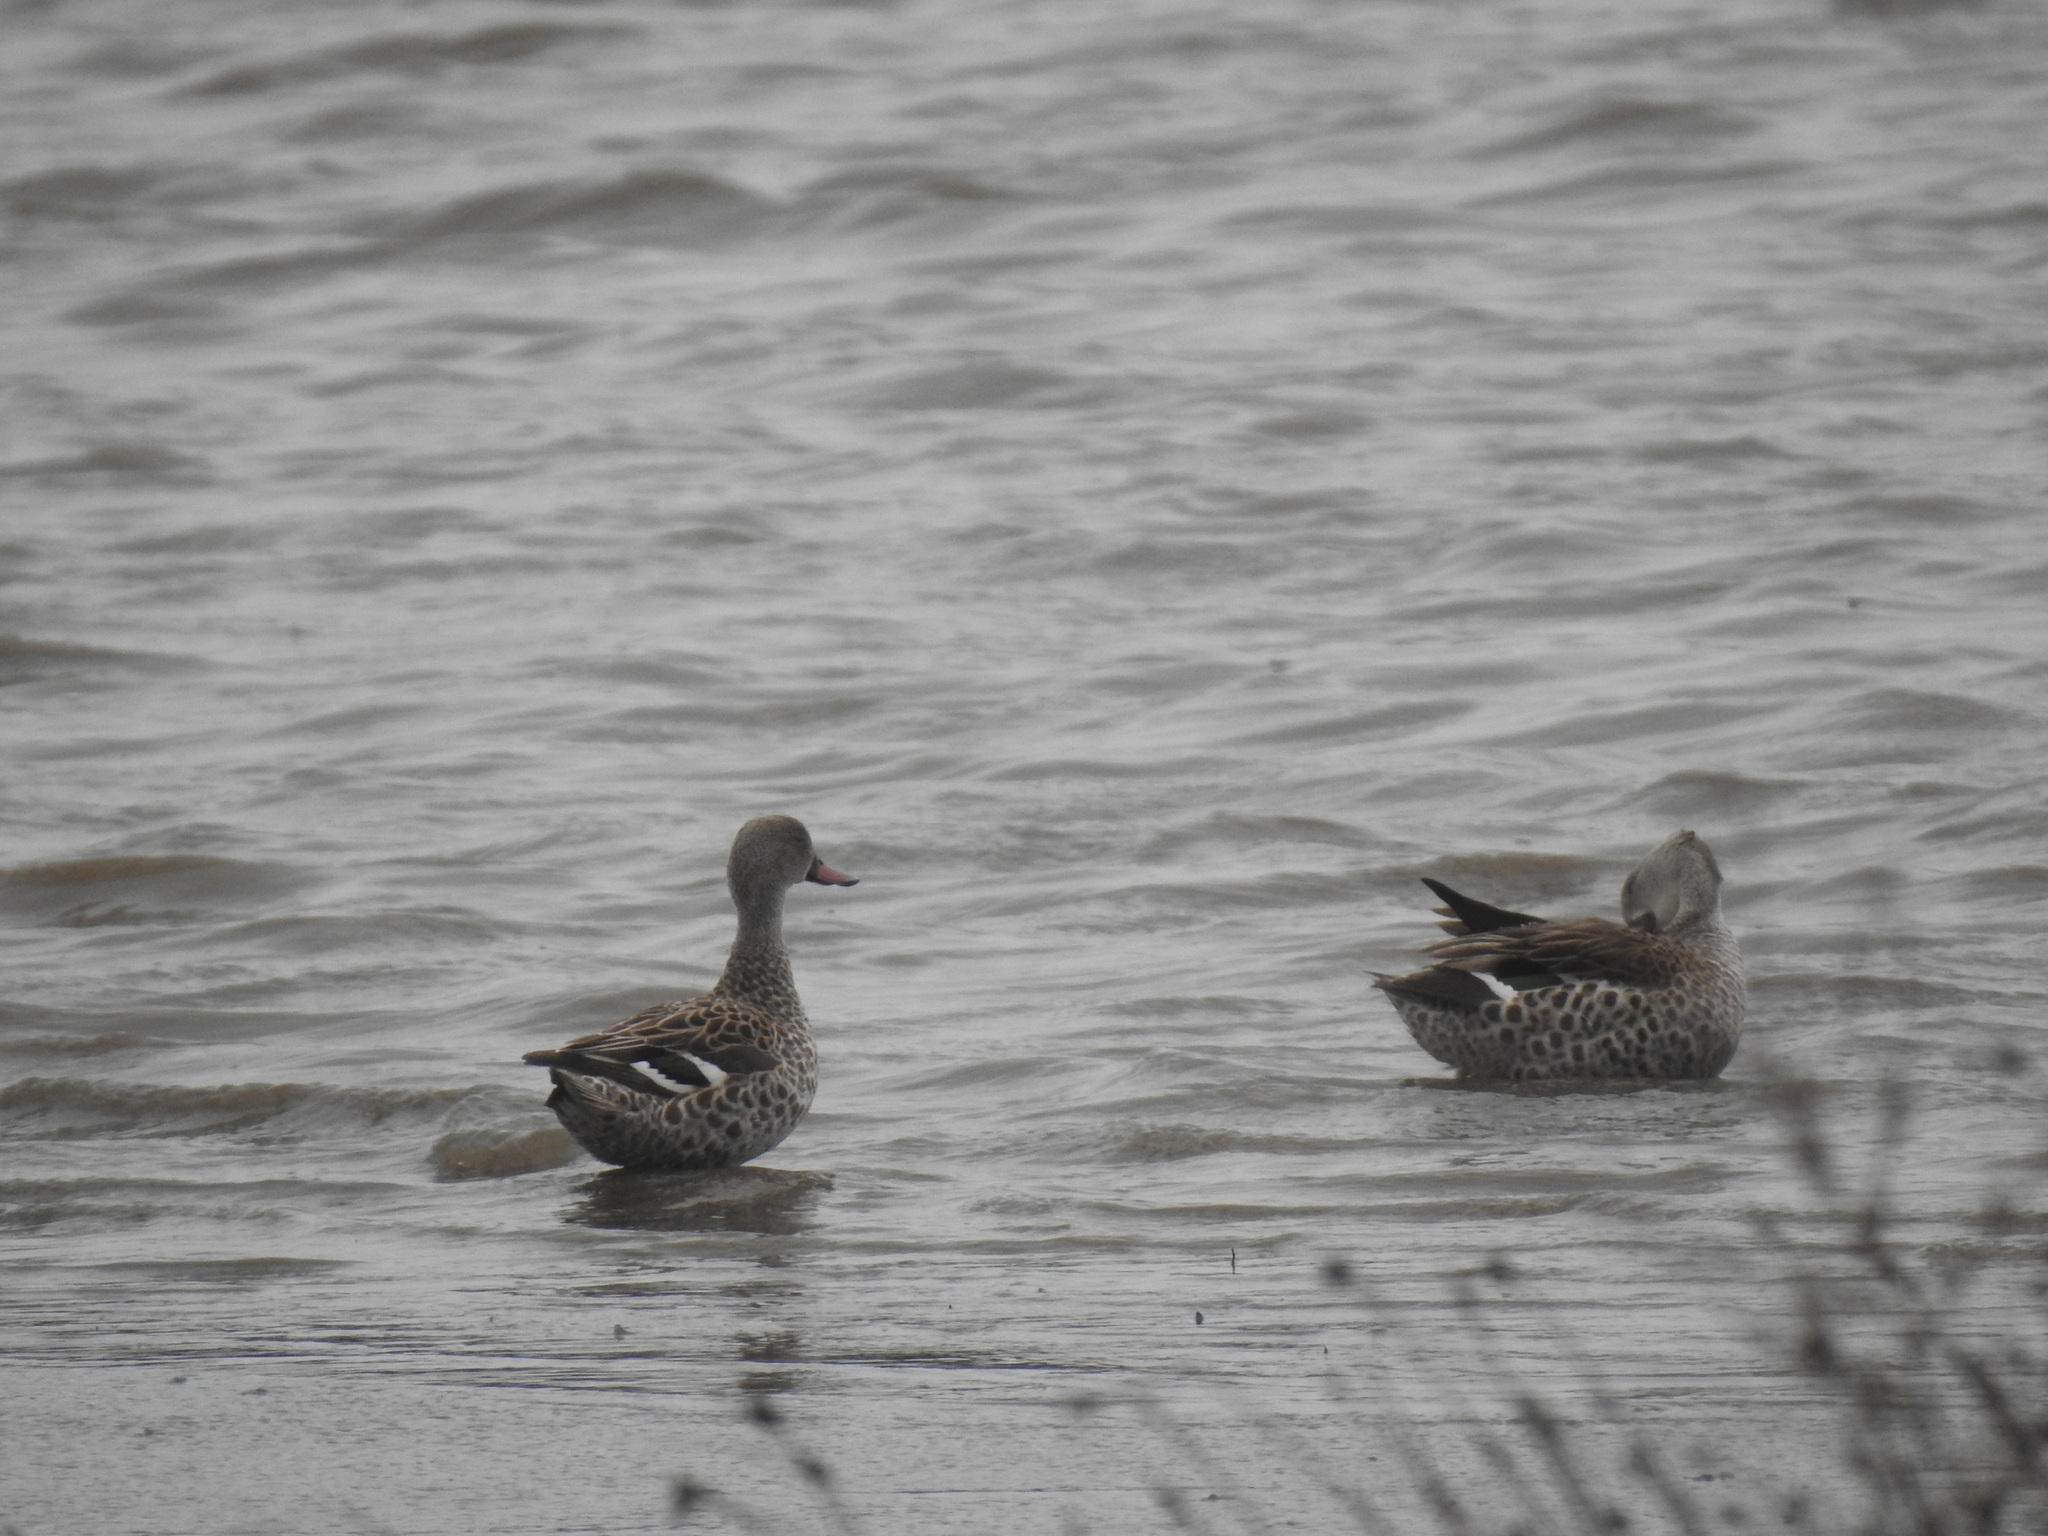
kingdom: Animalia
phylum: Chordata
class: Aves
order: Anseriformes
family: Anatidae
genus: Anas
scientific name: Anas capensis
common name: Cape teal
